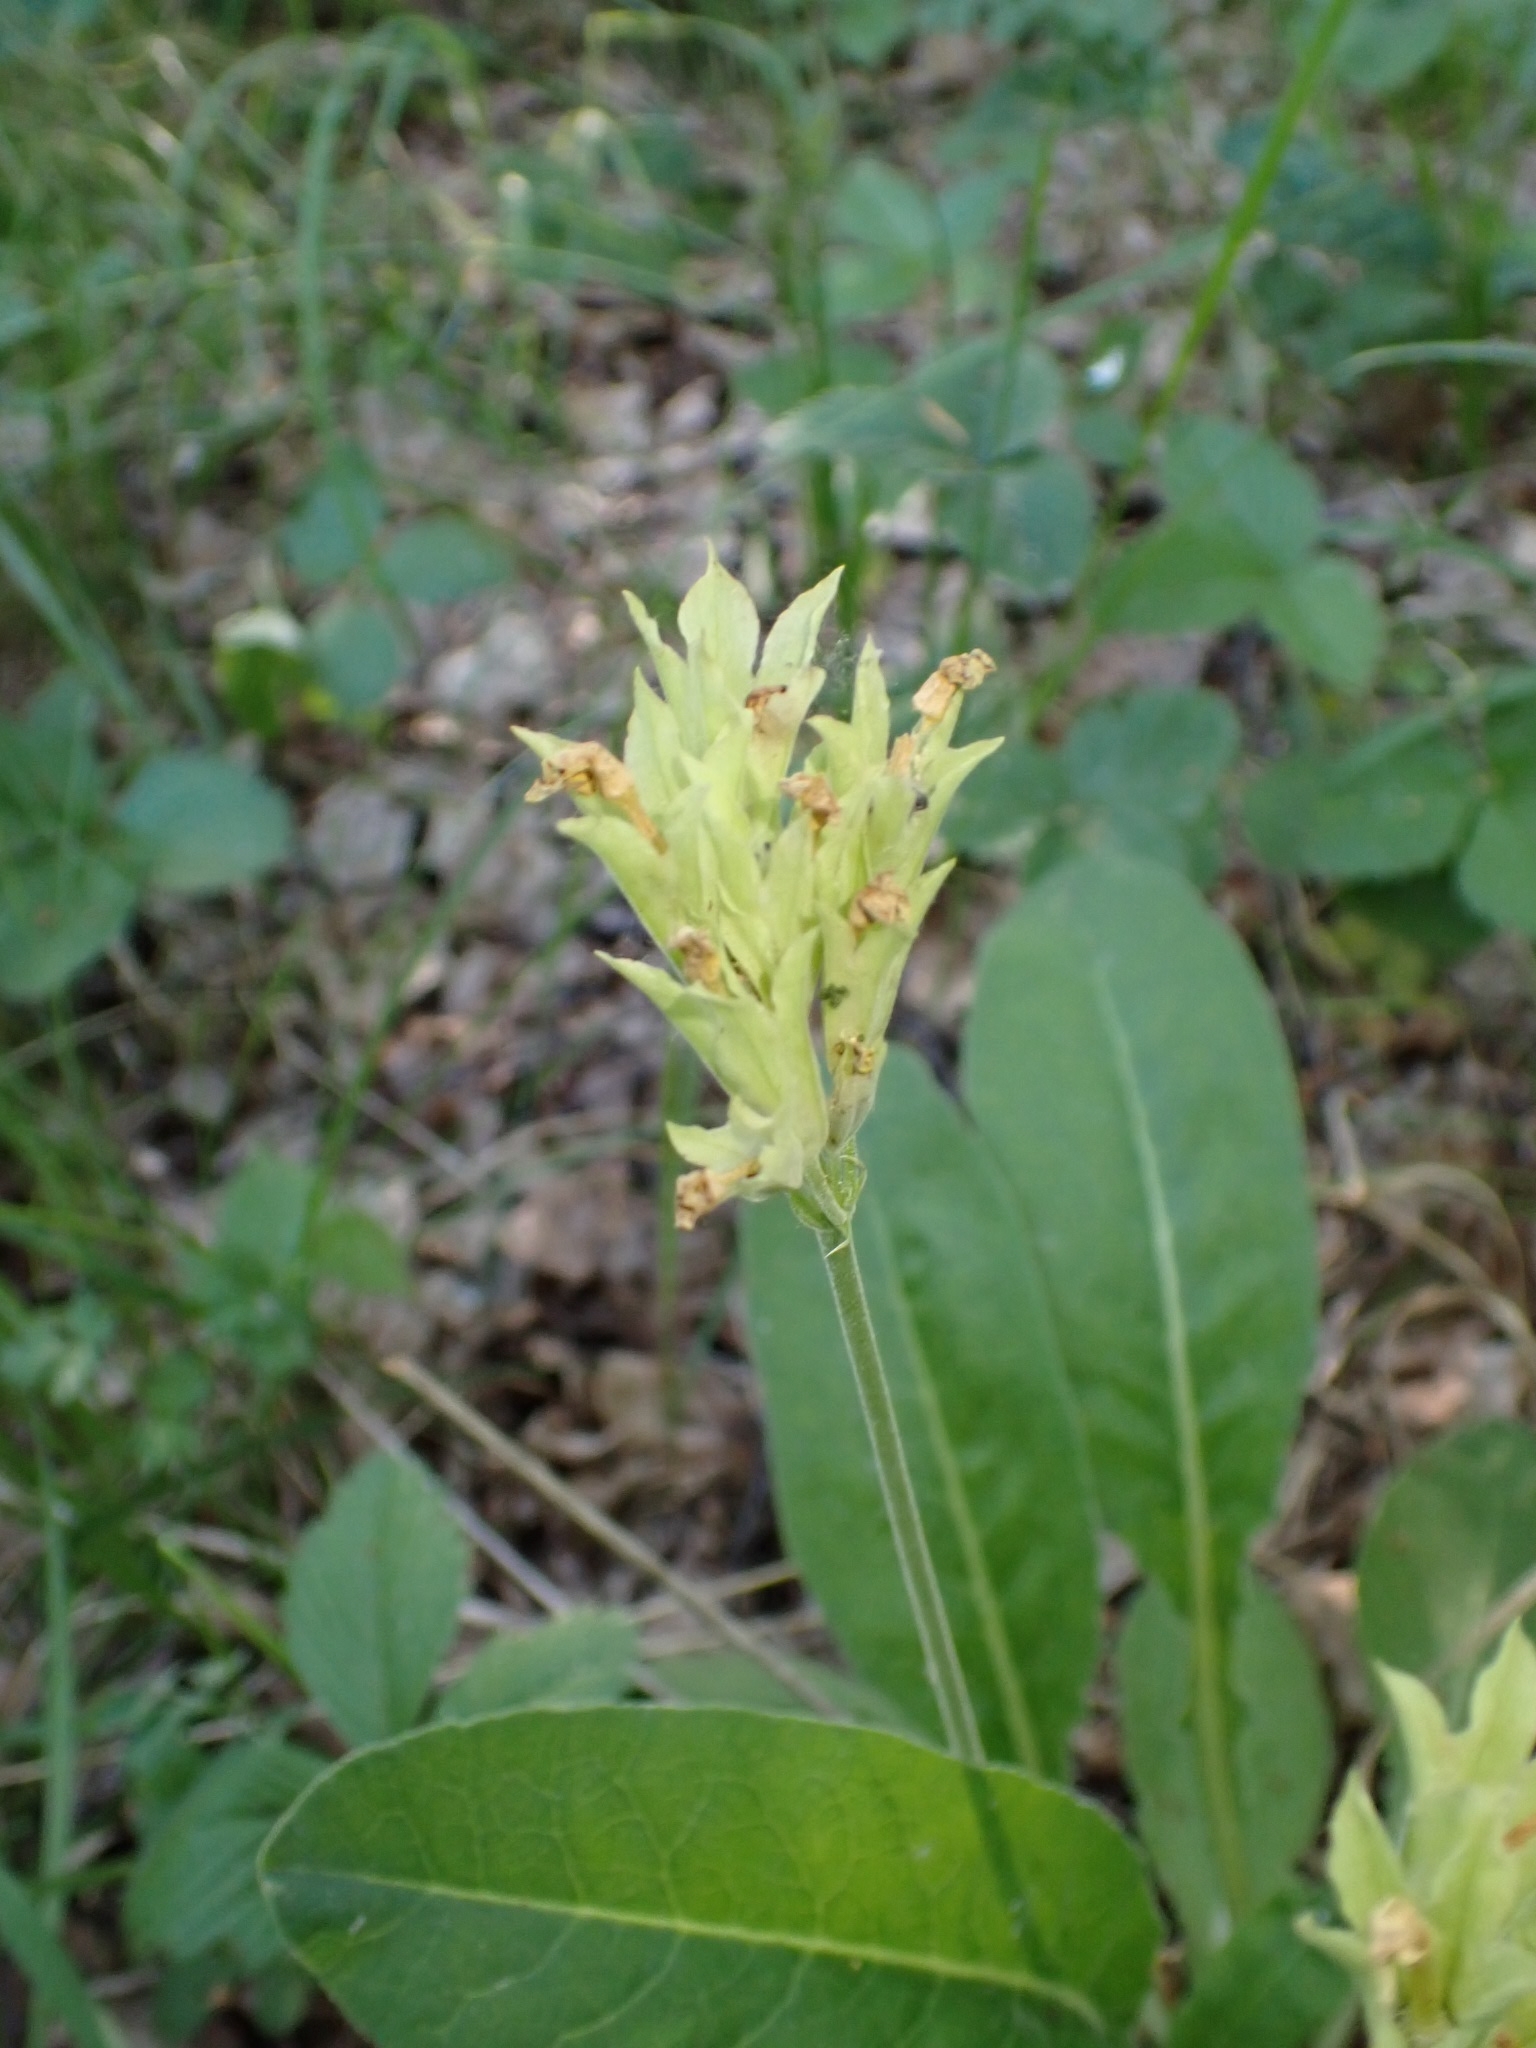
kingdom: Plantae
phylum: Tracheophyta
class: Magnoliopsida
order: Ericales
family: Primulaceae
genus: Primula
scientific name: Primula veris
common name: Cowslip
